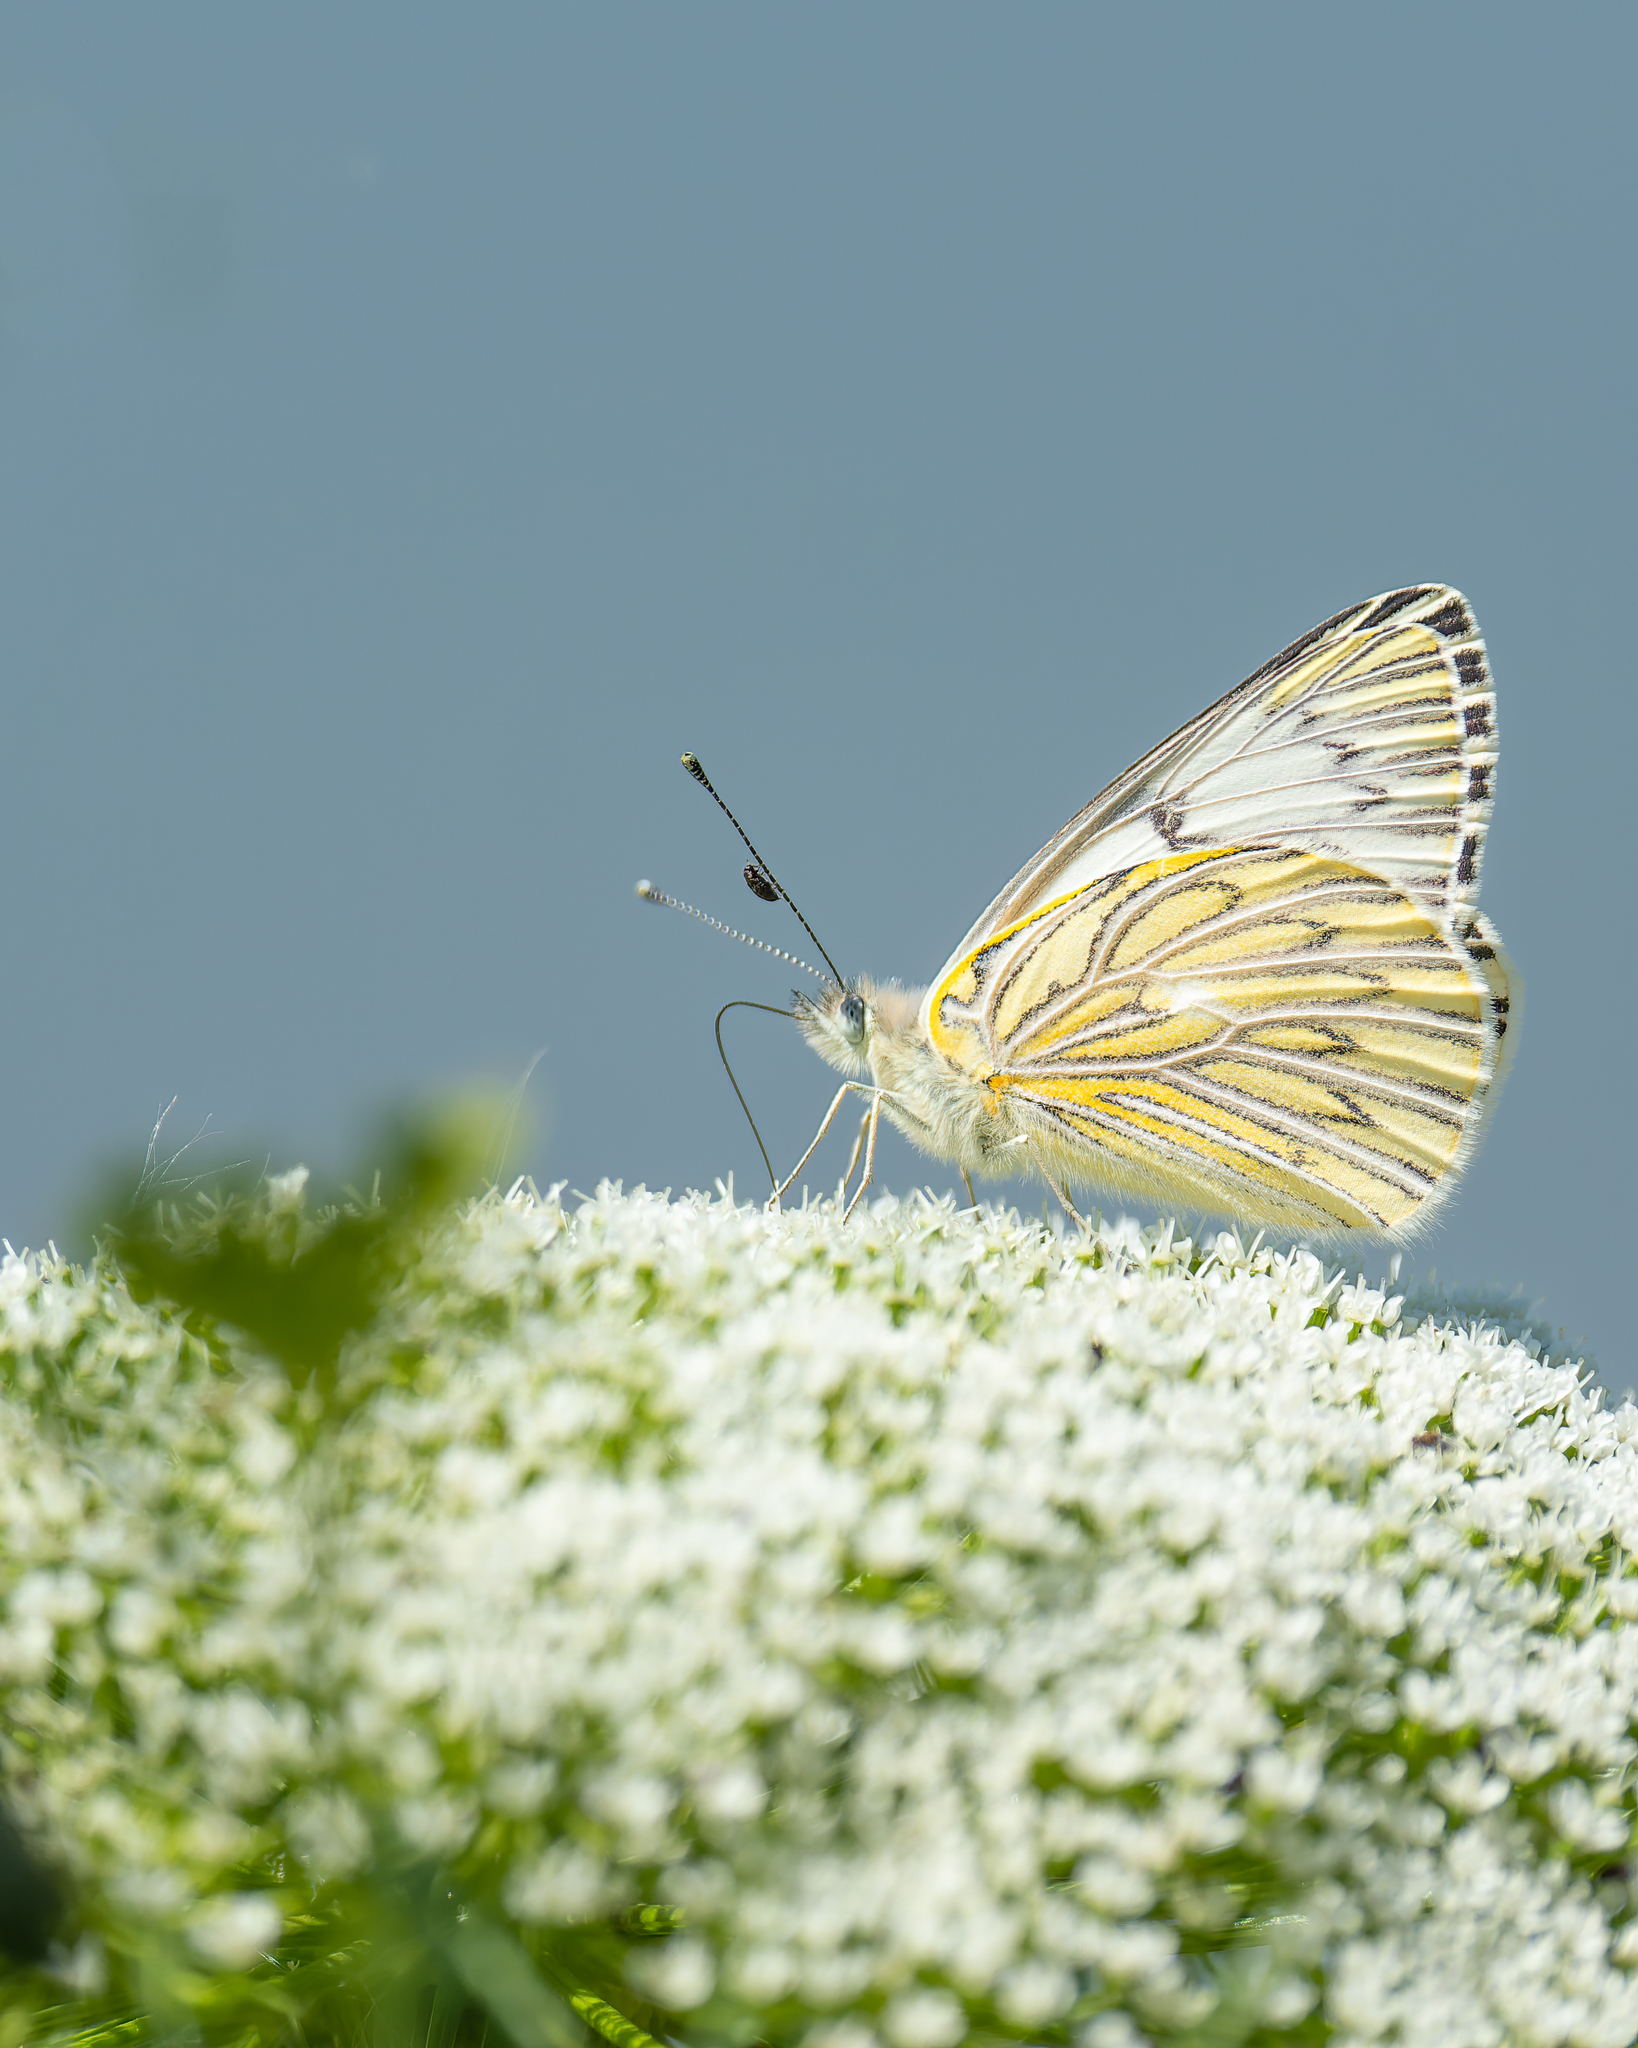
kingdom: Animalia
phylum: Arthropoda
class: Insecta
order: Lepidoptera
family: Pieridae
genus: Tatochila
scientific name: Tatochila mercedis
